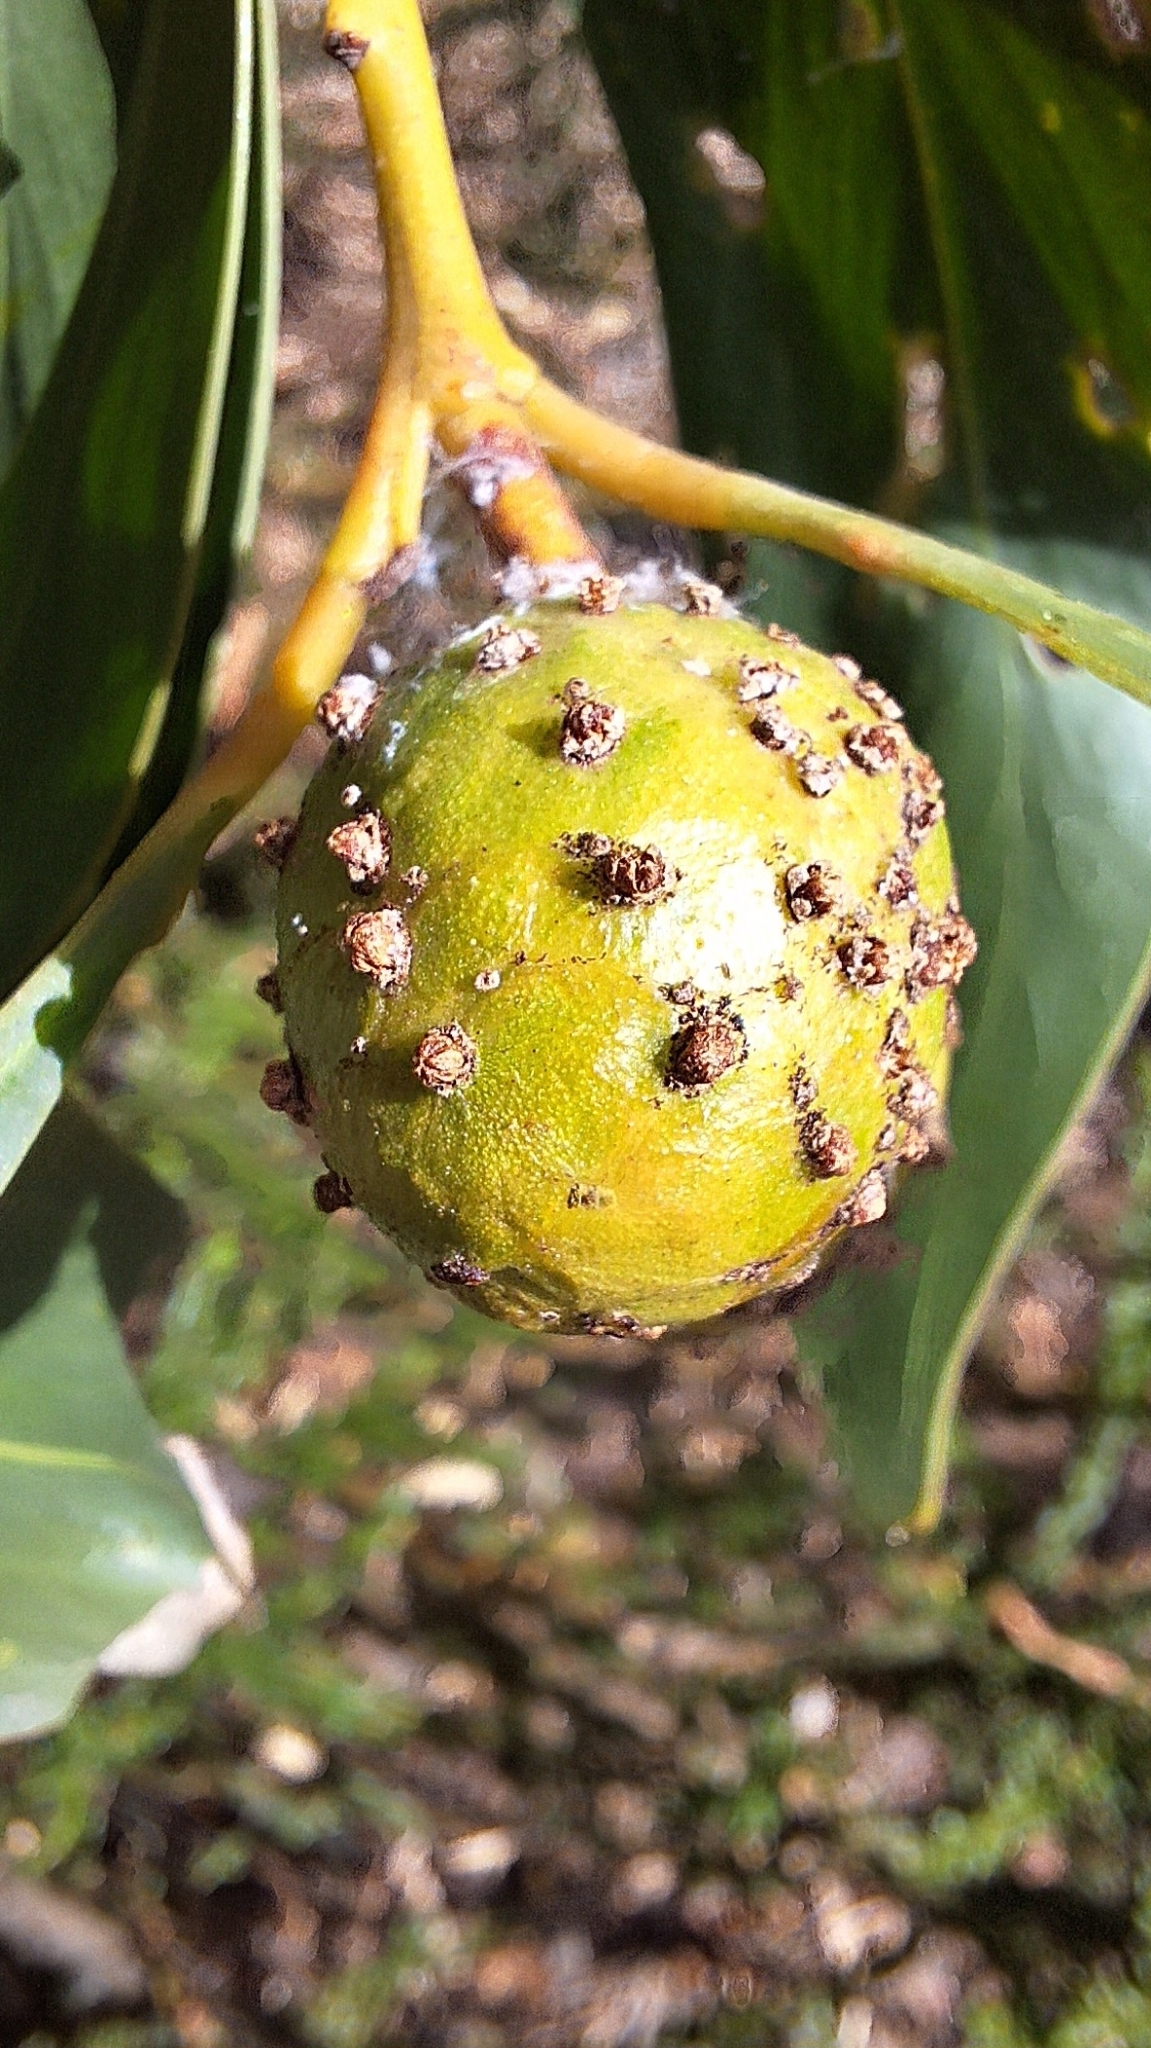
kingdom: Animalia
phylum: Arthropoda
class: Insecta
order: Hymenoptera
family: Pteromalidae
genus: Trichilogaster
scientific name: Trichilogaster signiventris
